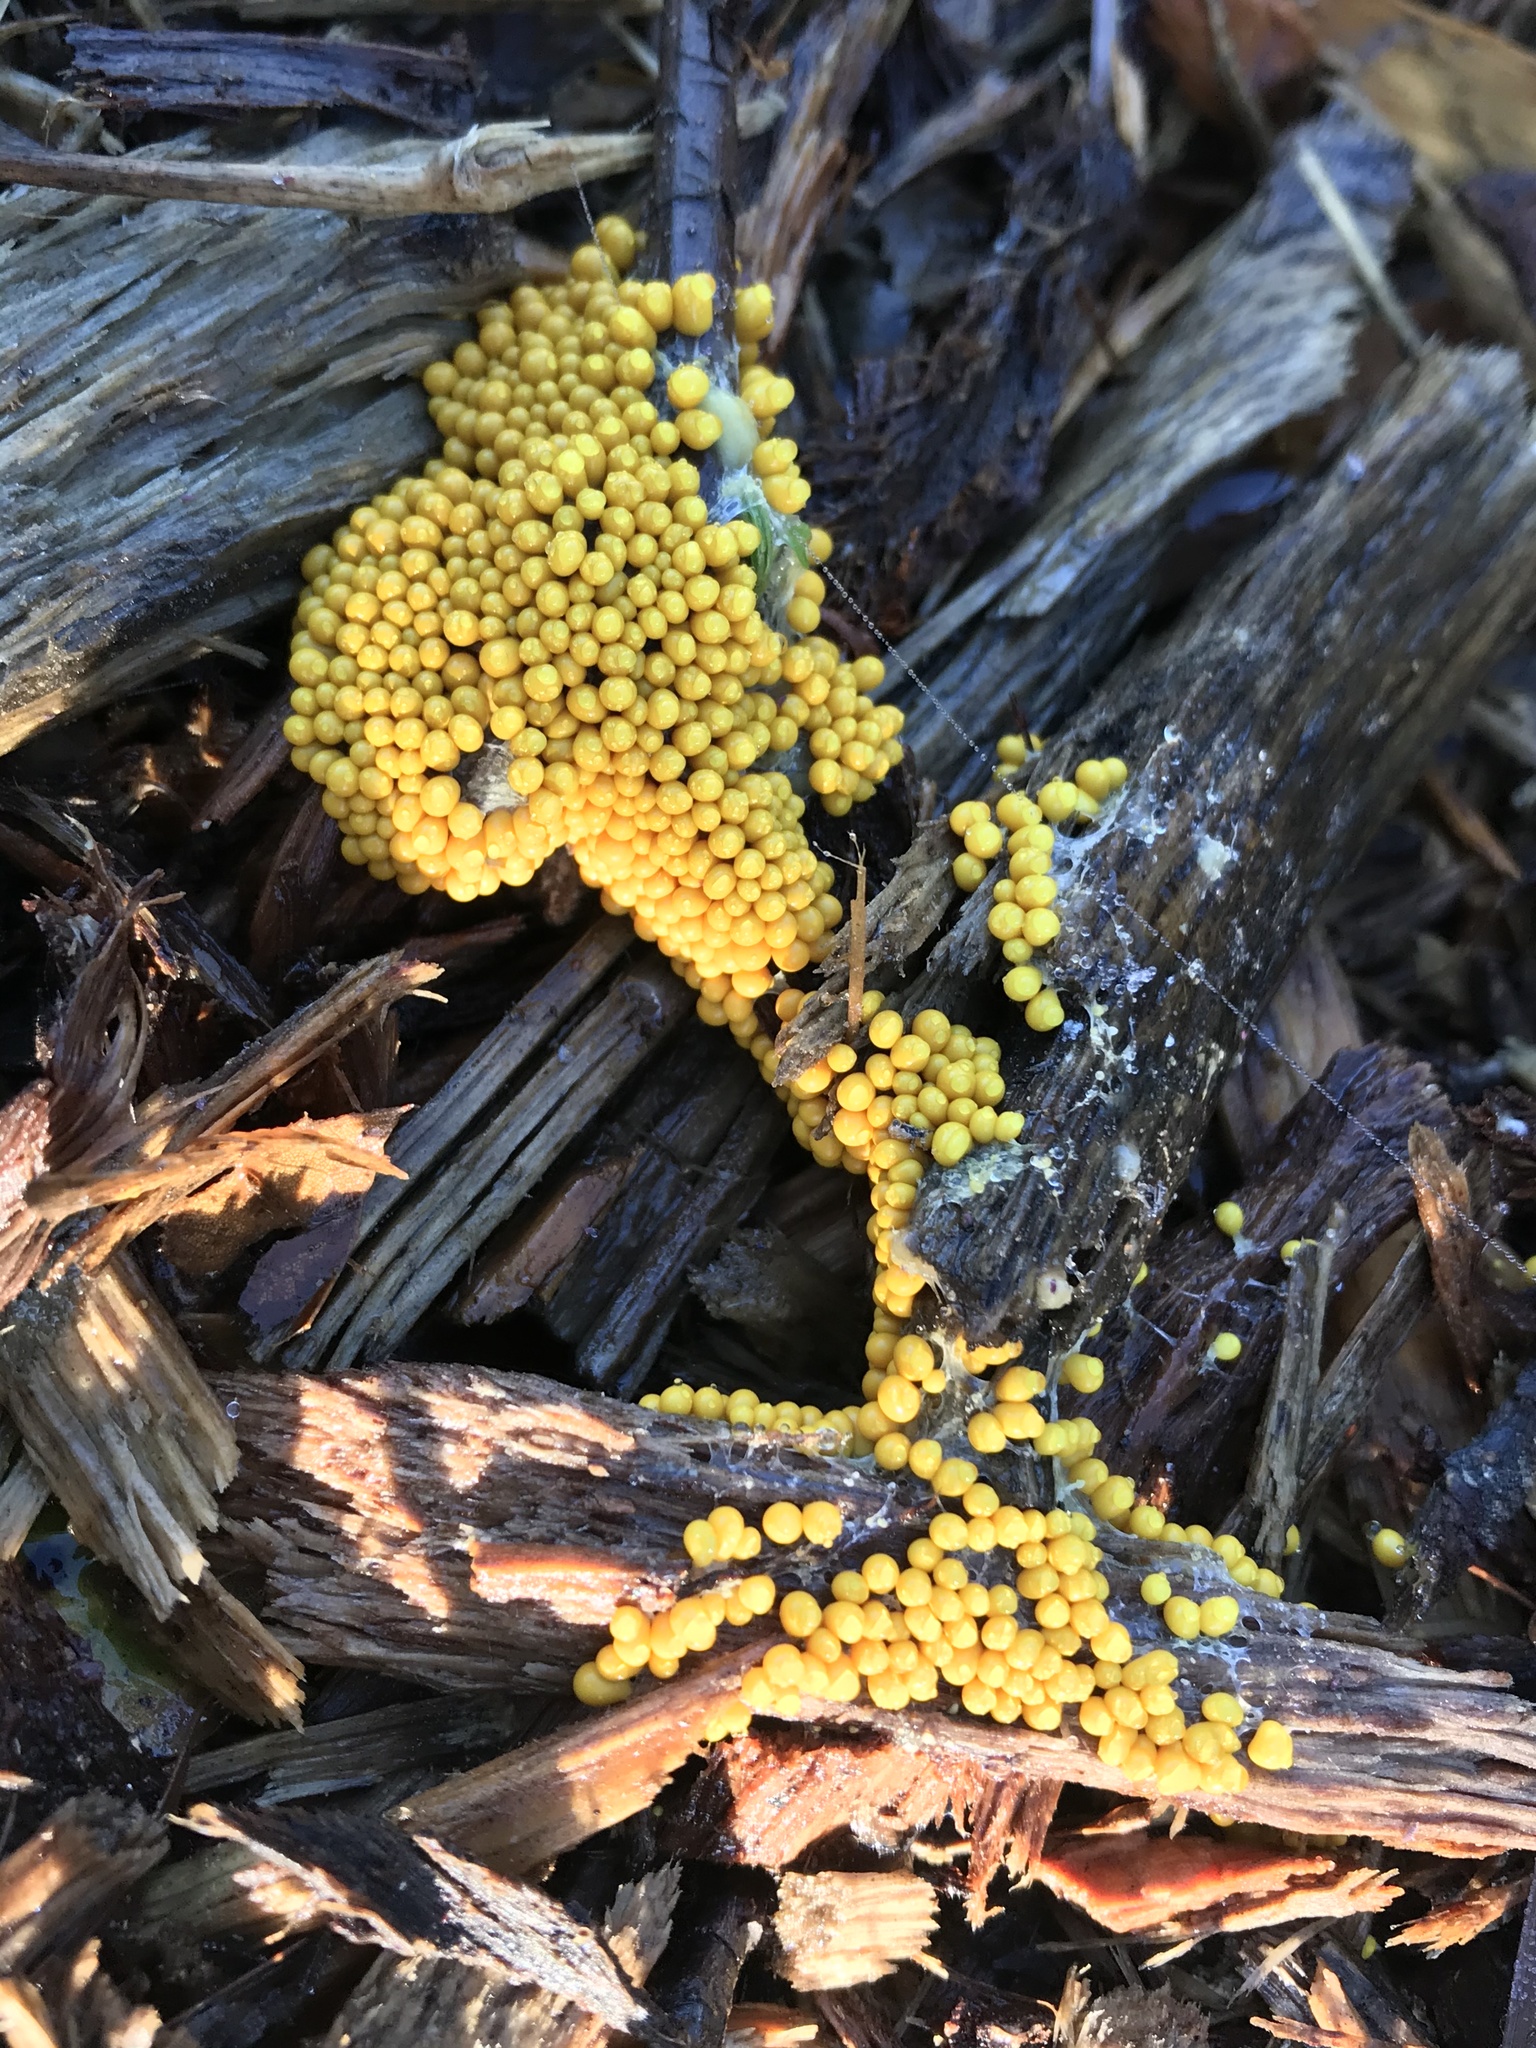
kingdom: Protozoa
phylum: Mycetozoa
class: Myxomycetes
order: Physarales
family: Physaraceae
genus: Leocarpus
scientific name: Leocarpus fragilis
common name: Insect-egg slime
